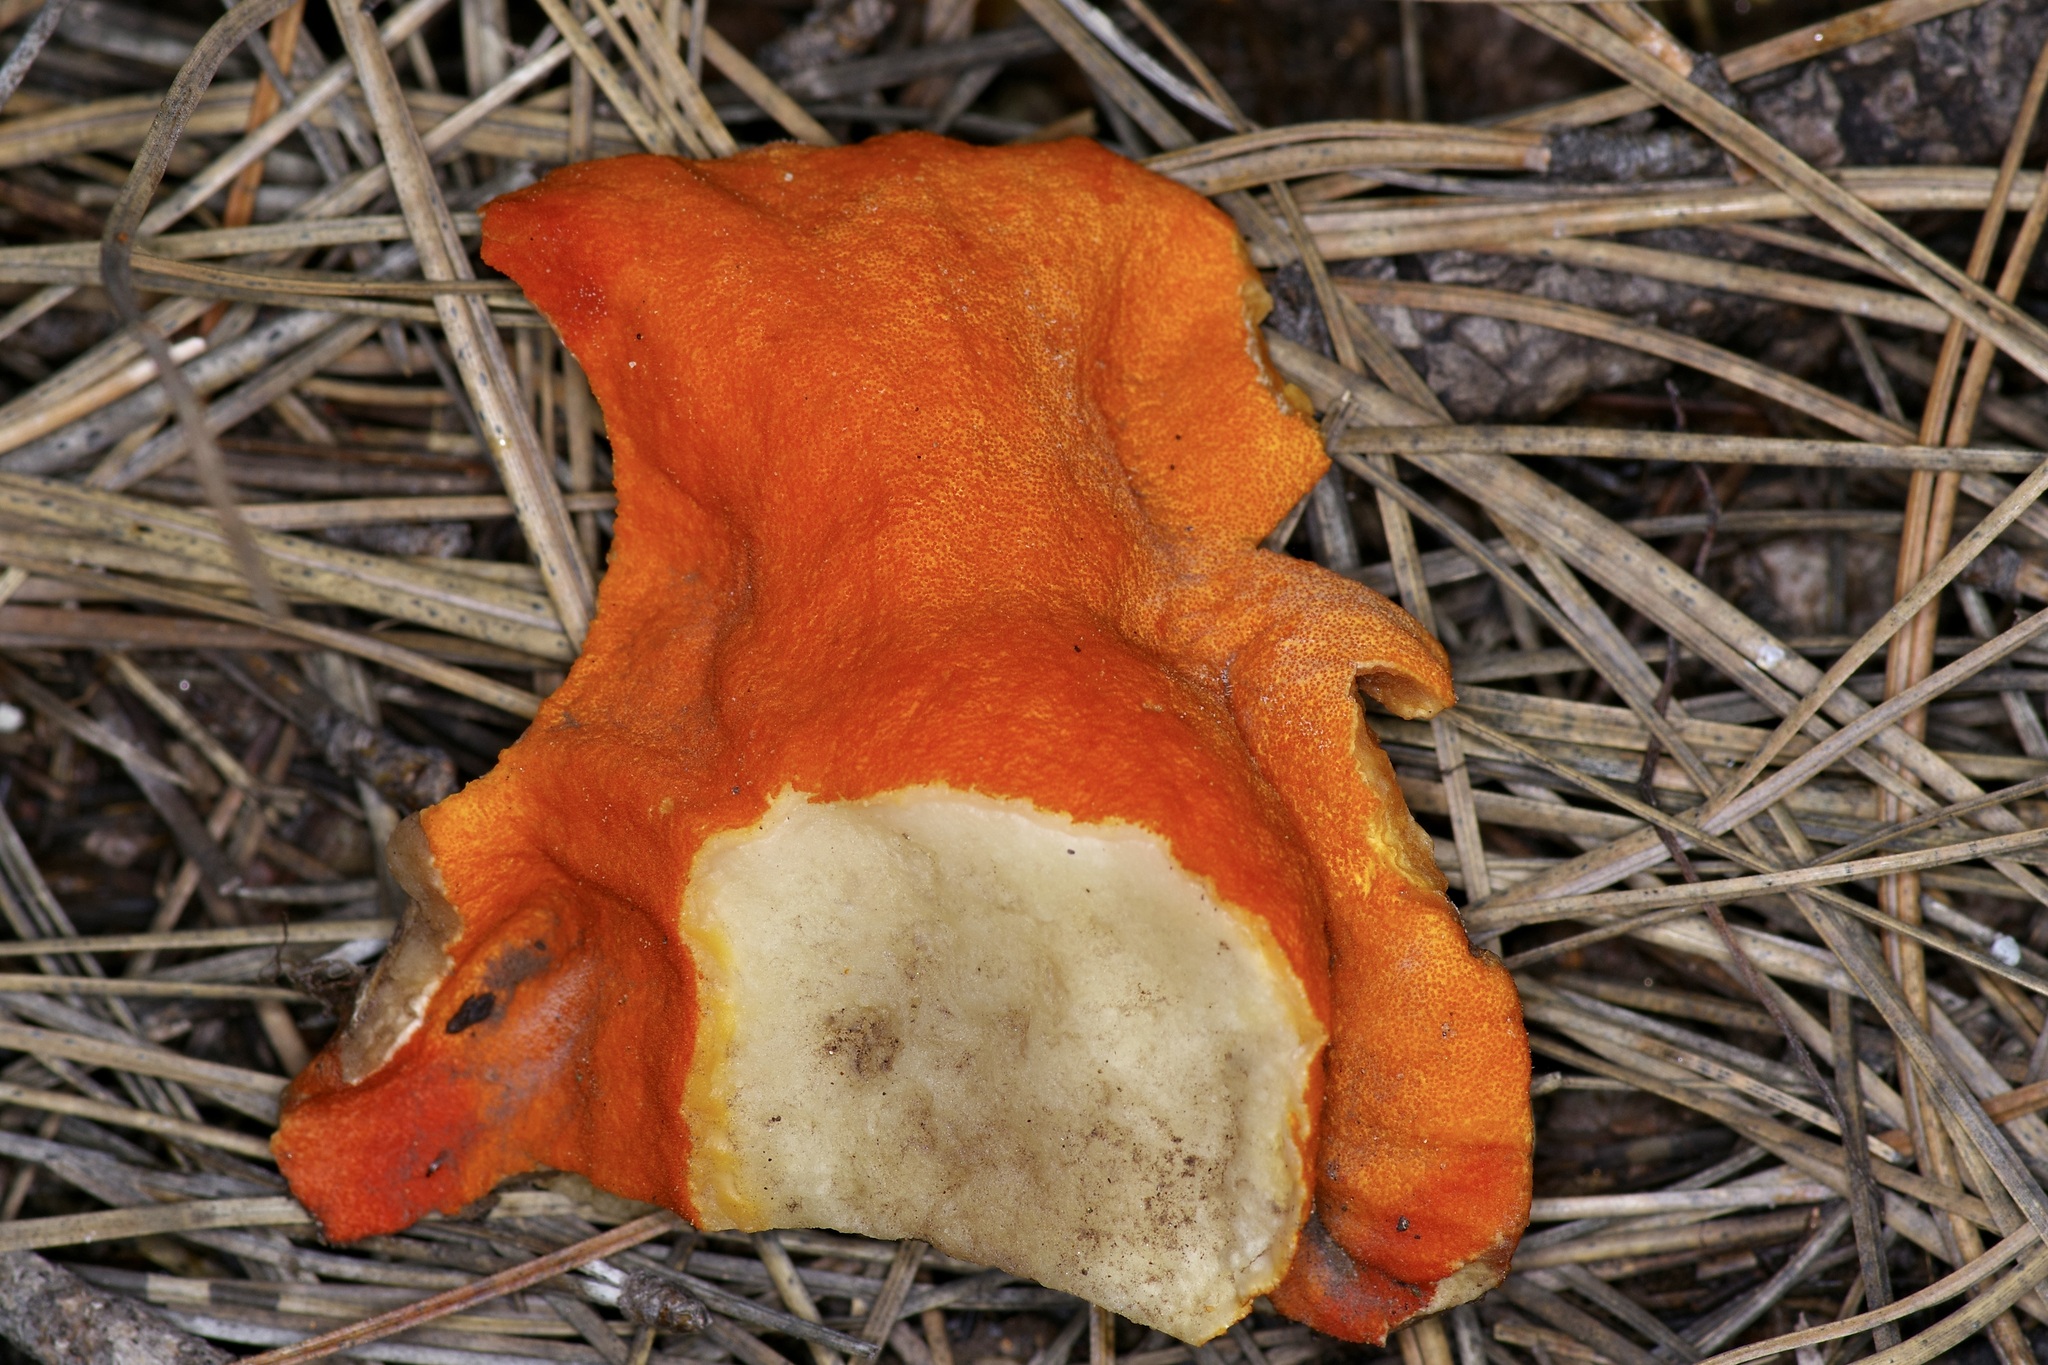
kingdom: Fungi
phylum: Ascomycota
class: Sordariomycetes
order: Hypocreales
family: Hypocreaceae
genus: Hypomyces
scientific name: Hypomyces lactifluorum
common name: Lobster mushroom
